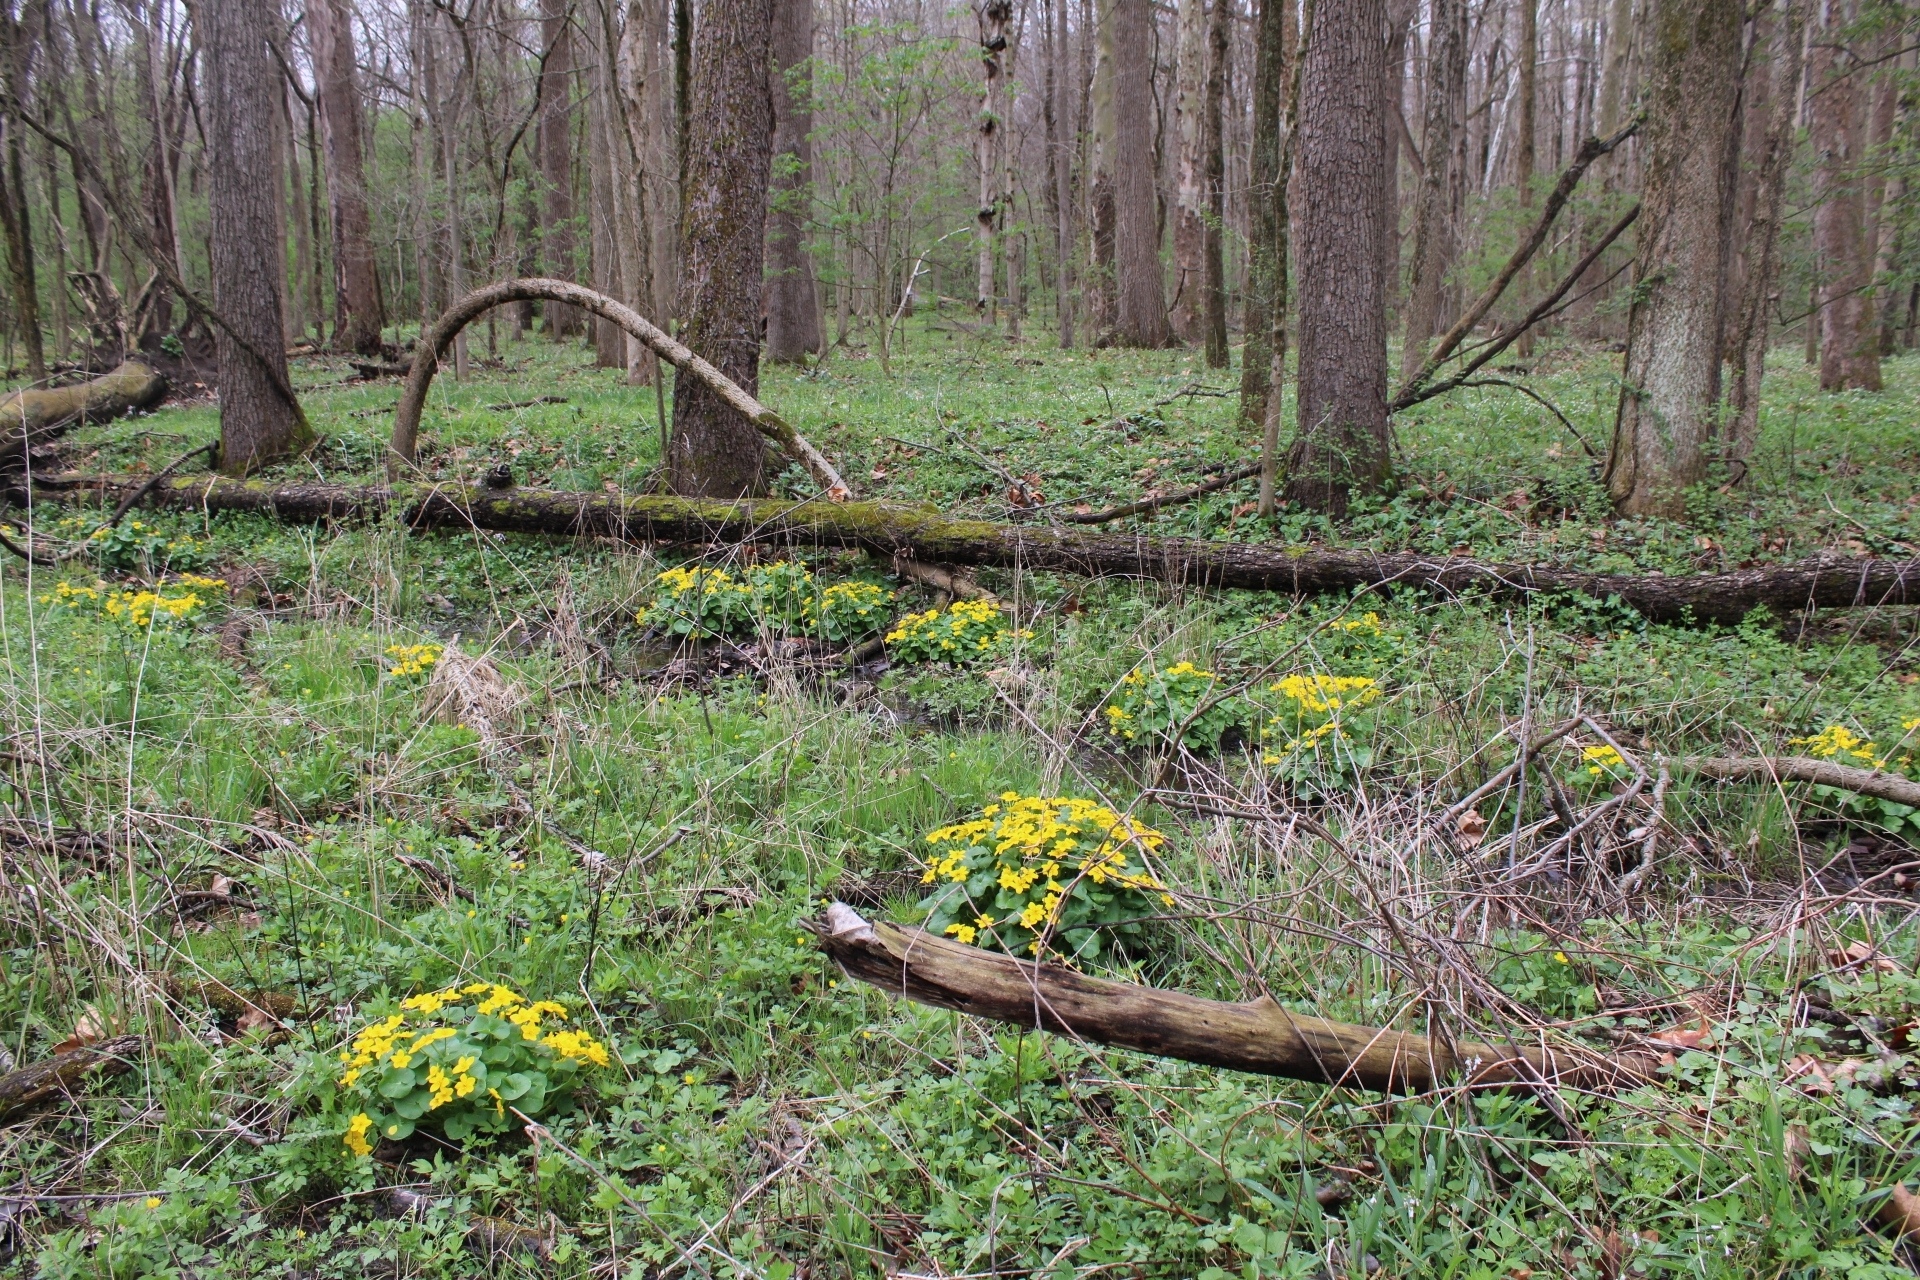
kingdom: Plantae
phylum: Tracheophyta
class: Magnoliopsida
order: Ranunculales
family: Ranunculaceae
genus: Caltha
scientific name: Caltha palustris
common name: Marsh marigold
